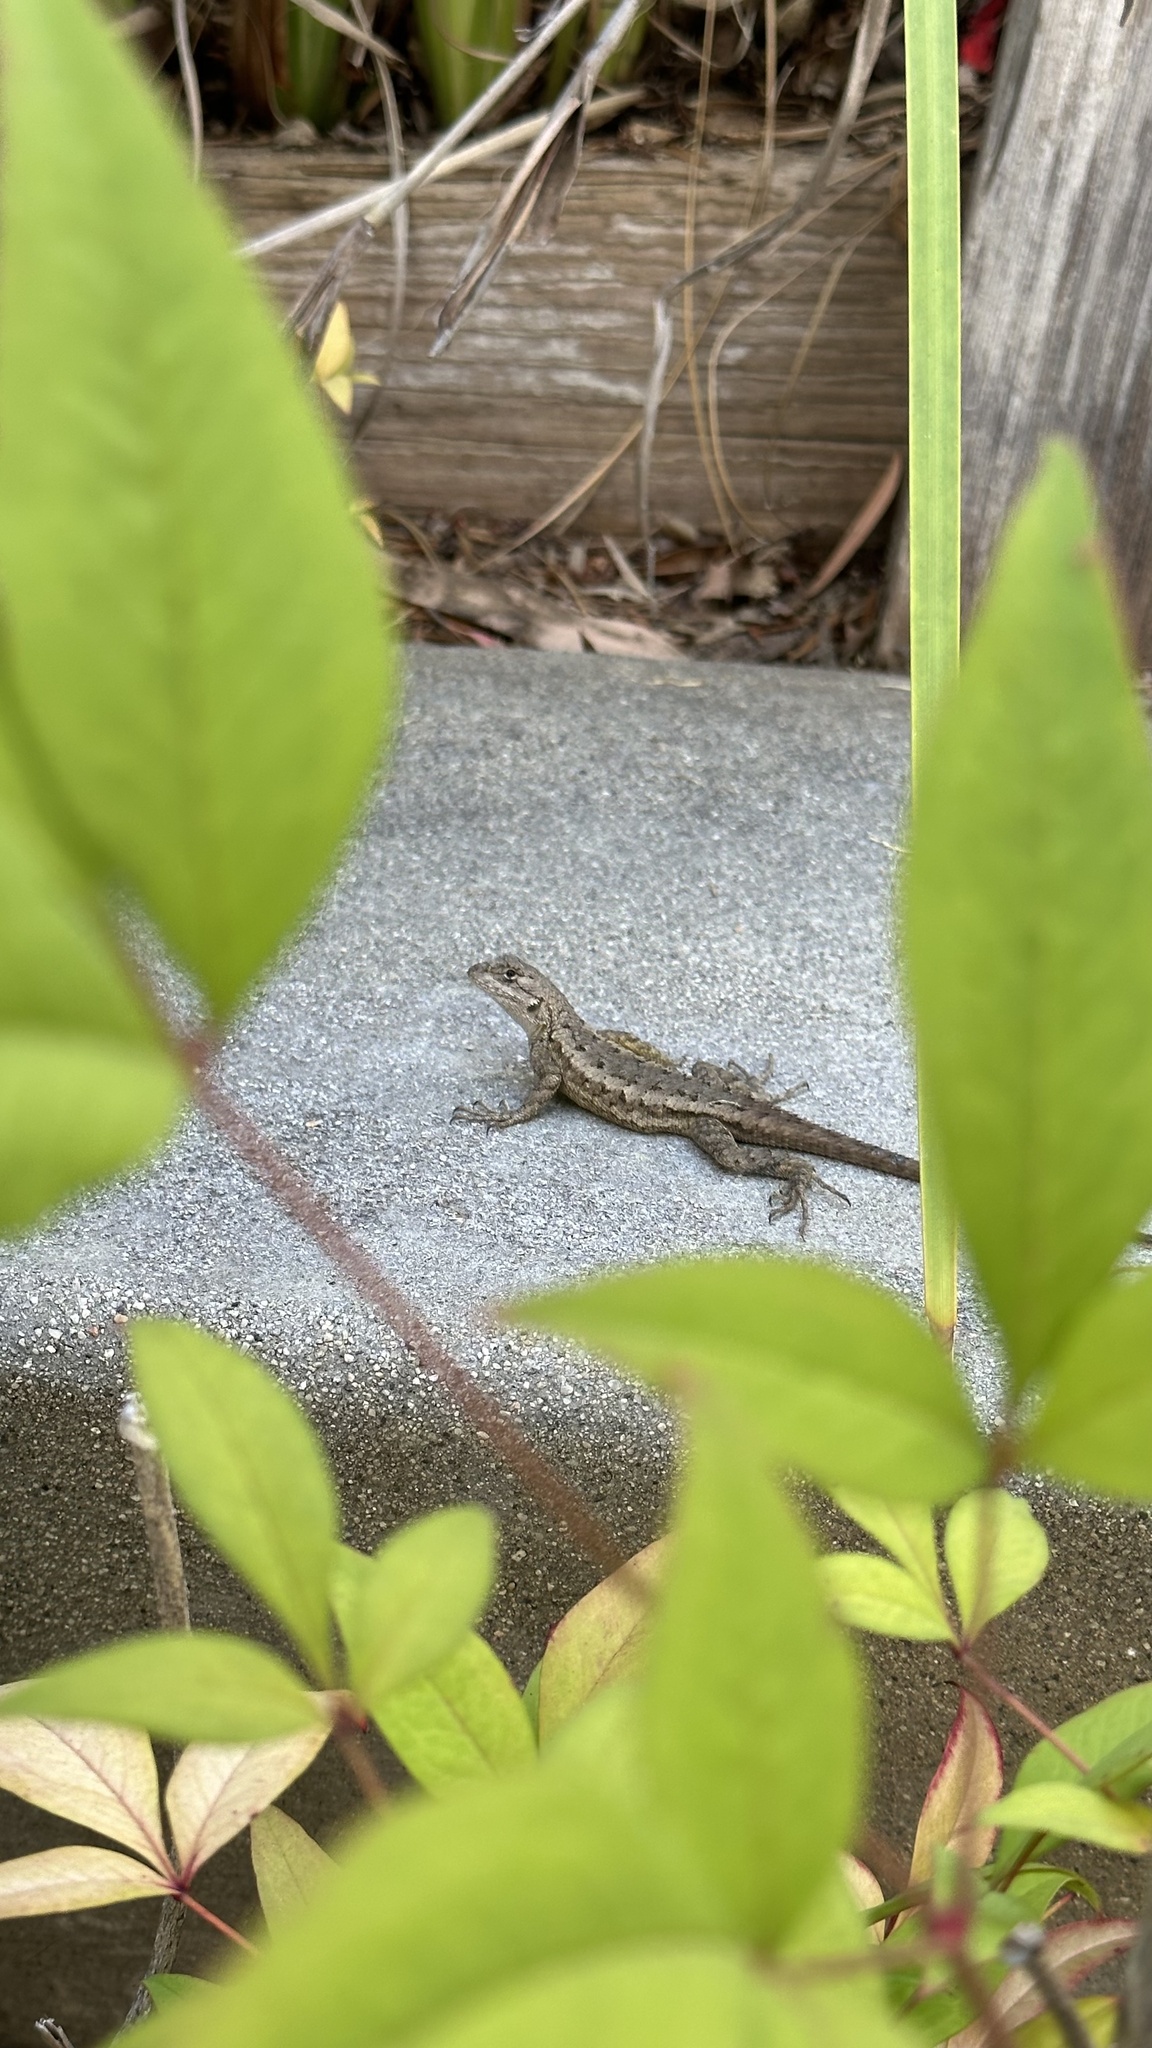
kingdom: Animalia
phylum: Chordata
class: Squamata
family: Phrynosomatidae
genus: Sceloporus
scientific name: Sceloporus occidentalis
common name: Western fence lizard
